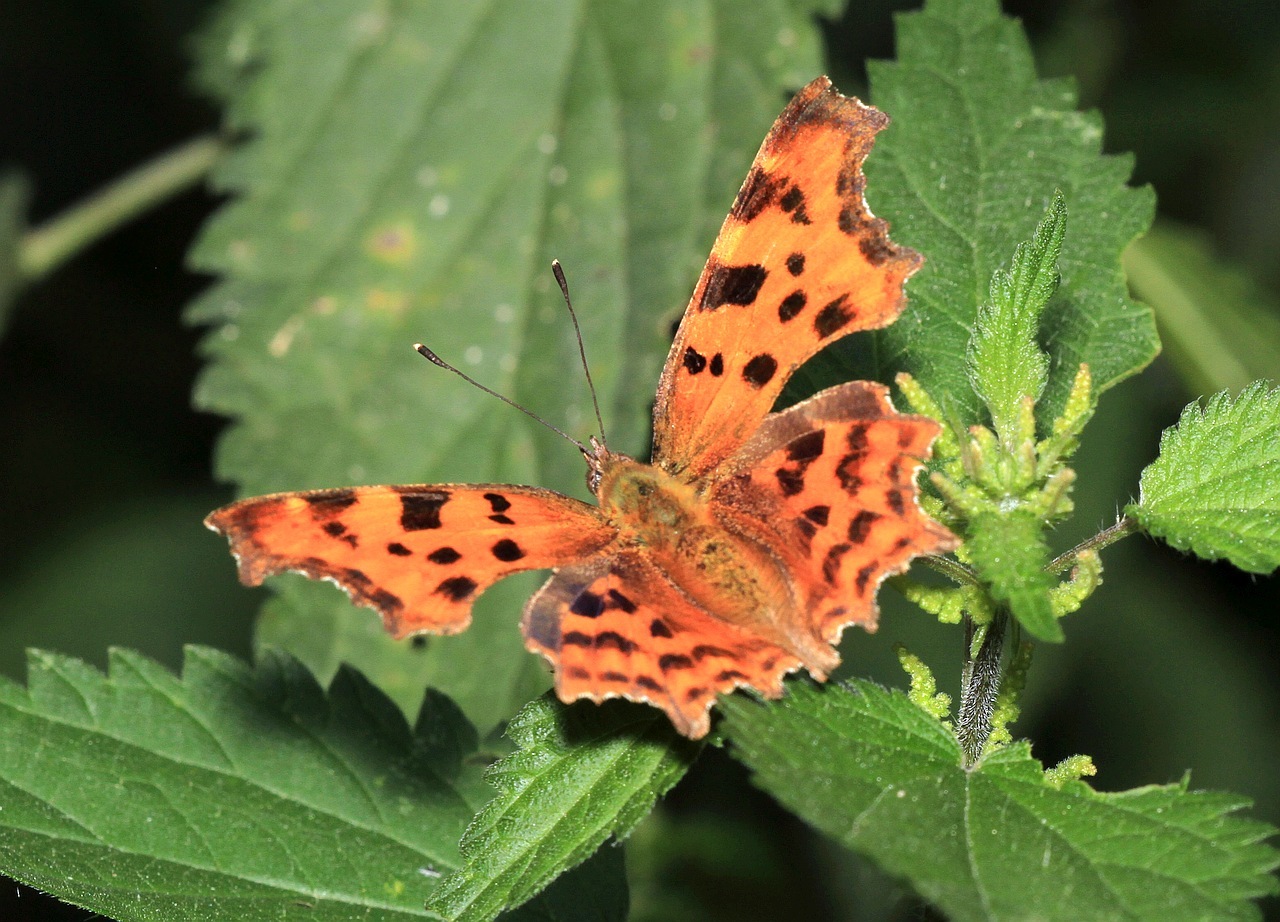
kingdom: Animalia
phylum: Arthropoda
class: Insecta
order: Lepidoptera
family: Nymphalidae
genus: Polygonia
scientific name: Polygonia c-album
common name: Comma
